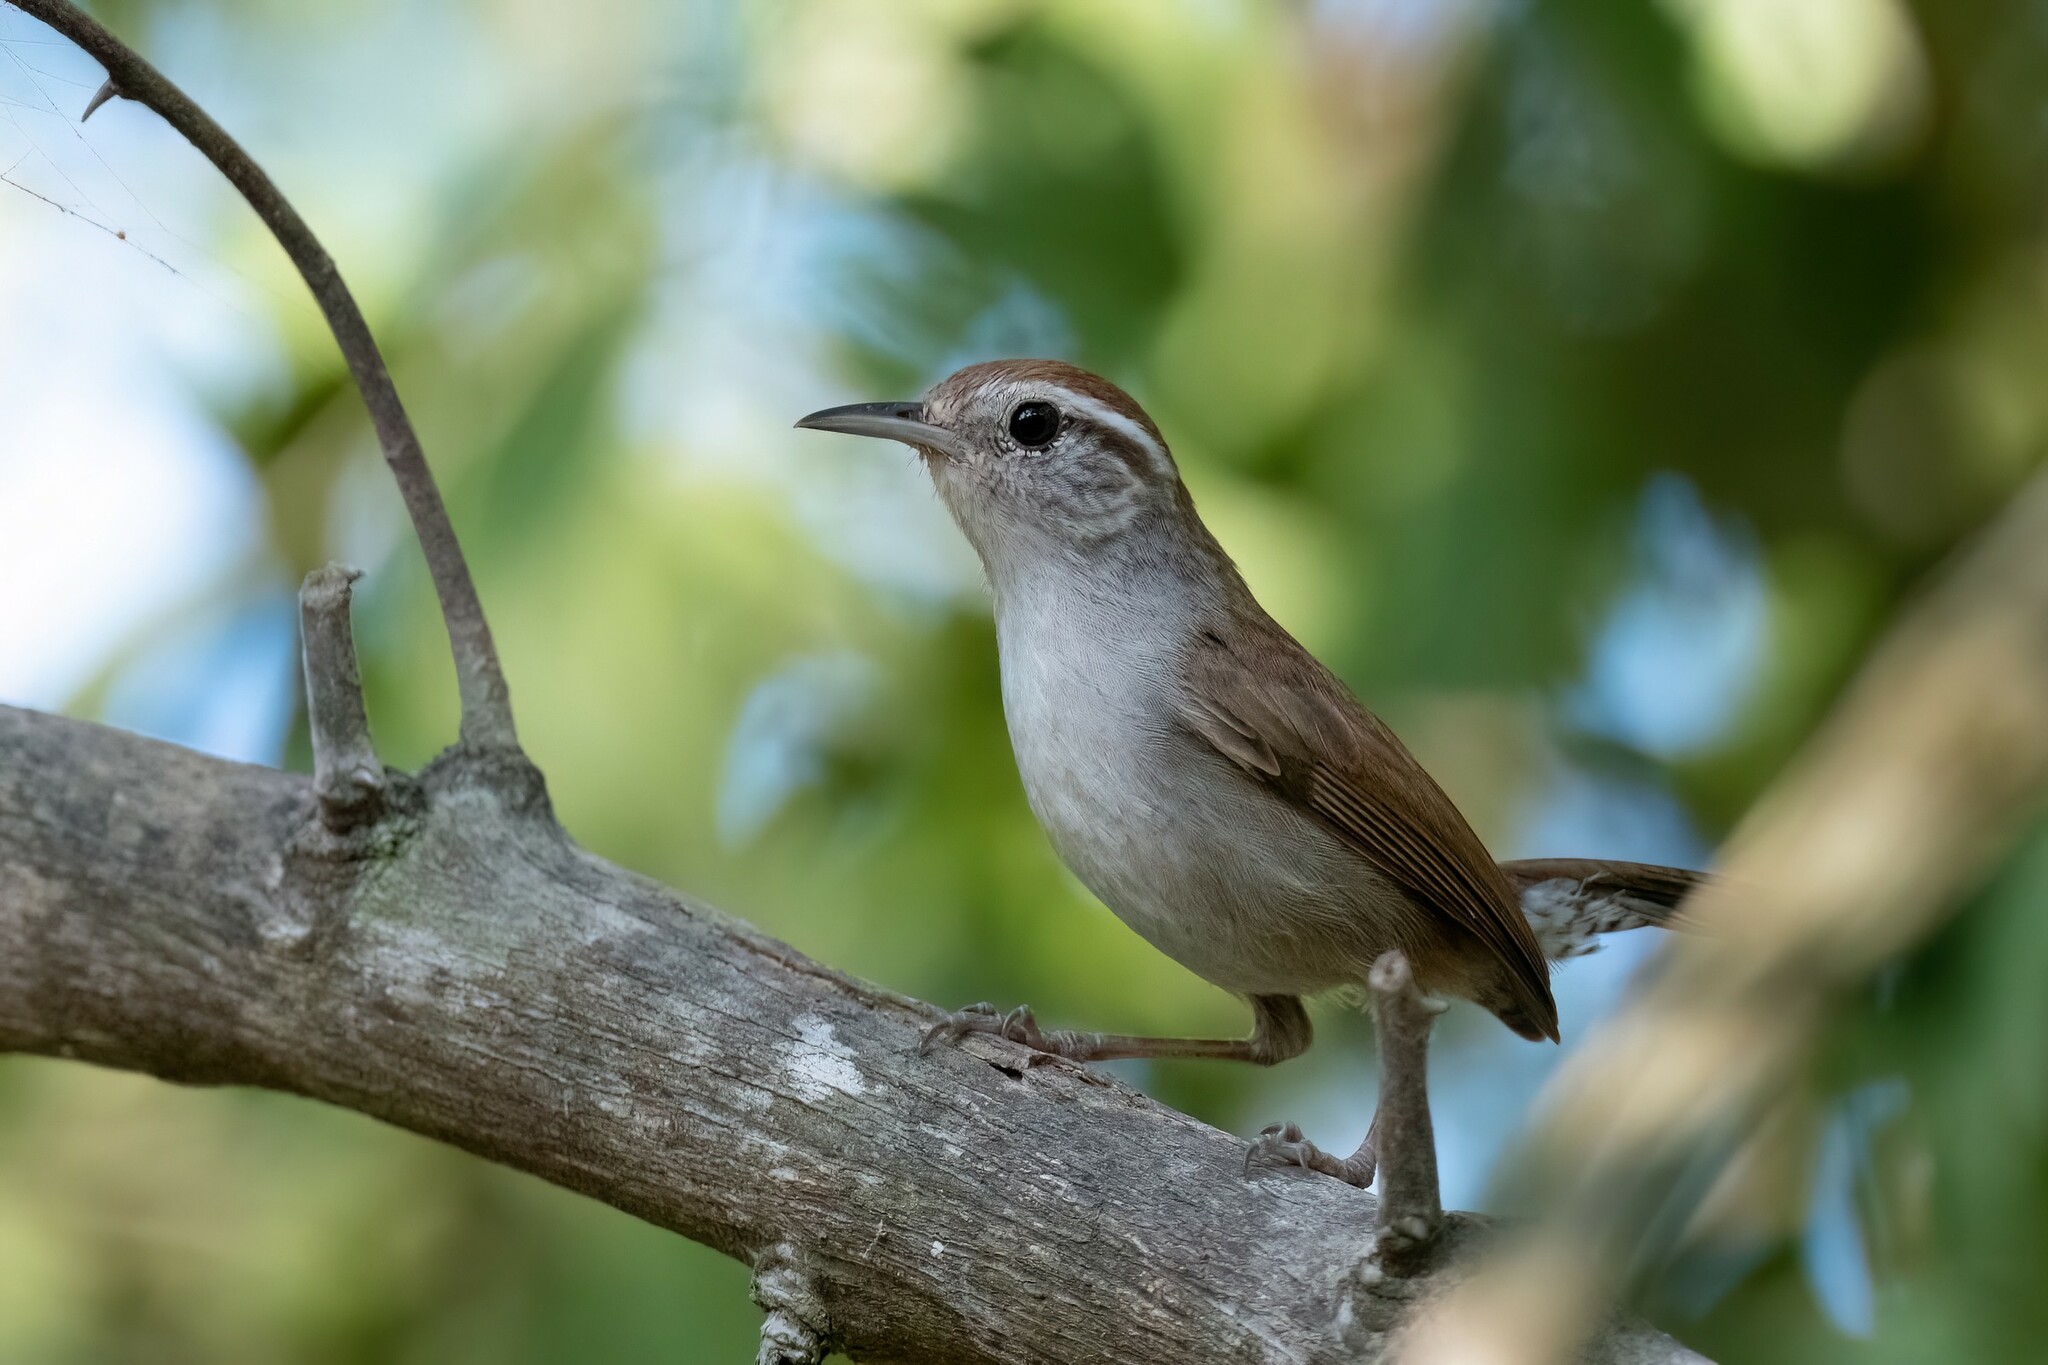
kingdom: Animalia
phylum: Chordata
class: Aves
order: Passeriformes
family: Troglodytidae
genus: Uropsila
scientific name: Uropsila leucogastra
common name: White-bellied wren
